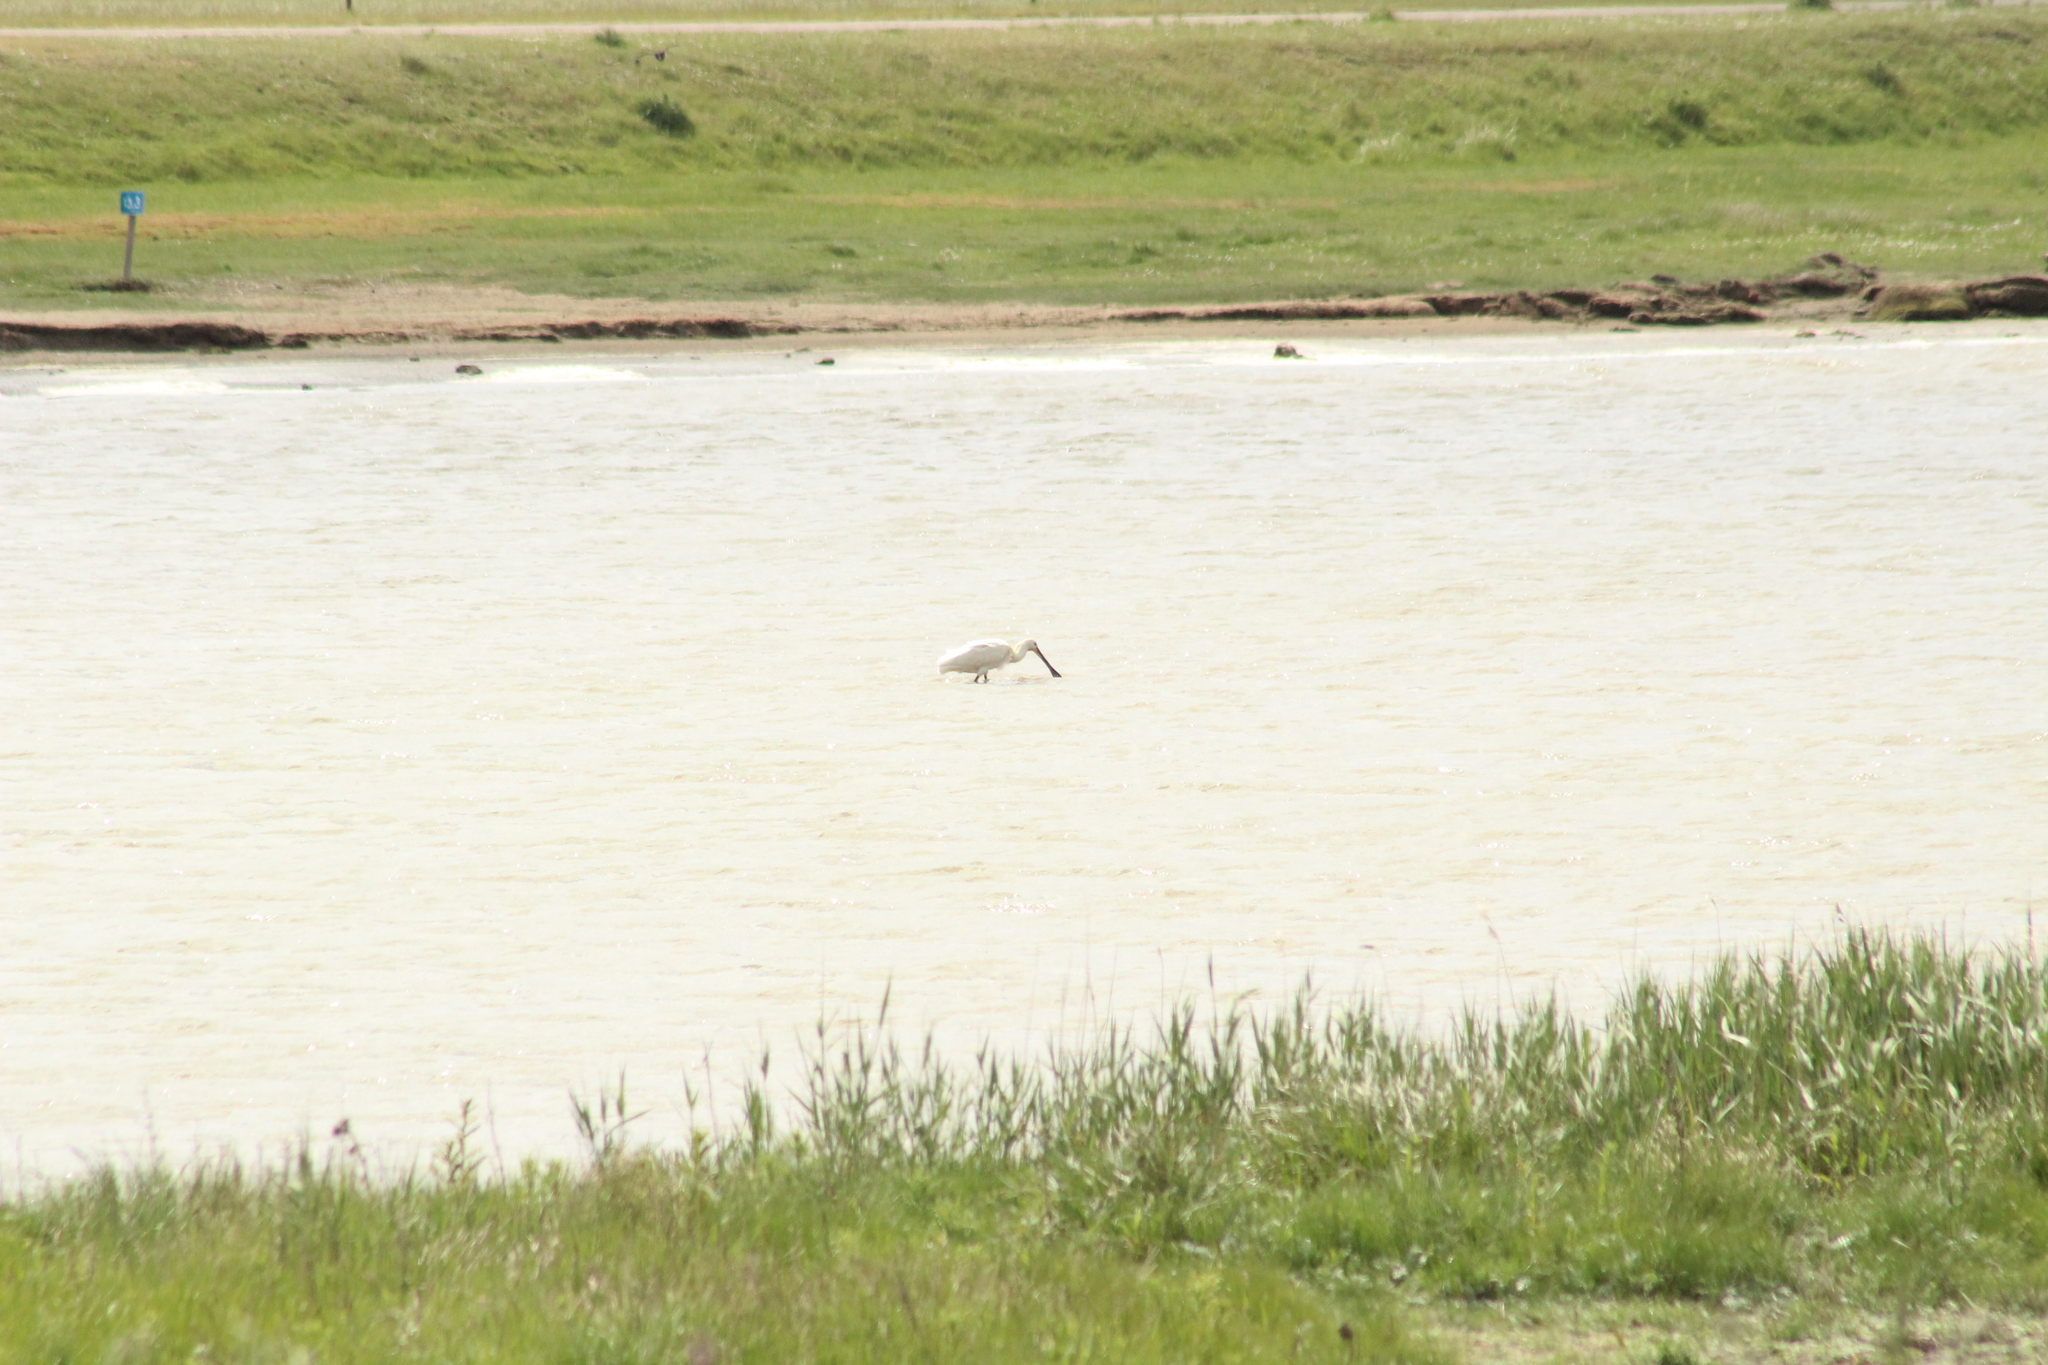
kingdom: Animalia
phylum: Chordata
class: Aves
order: Pelecaniformes
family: Threskiornithidae
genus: Platalea
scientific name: Platalea leucorodia
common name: Eurasian spoonbill
